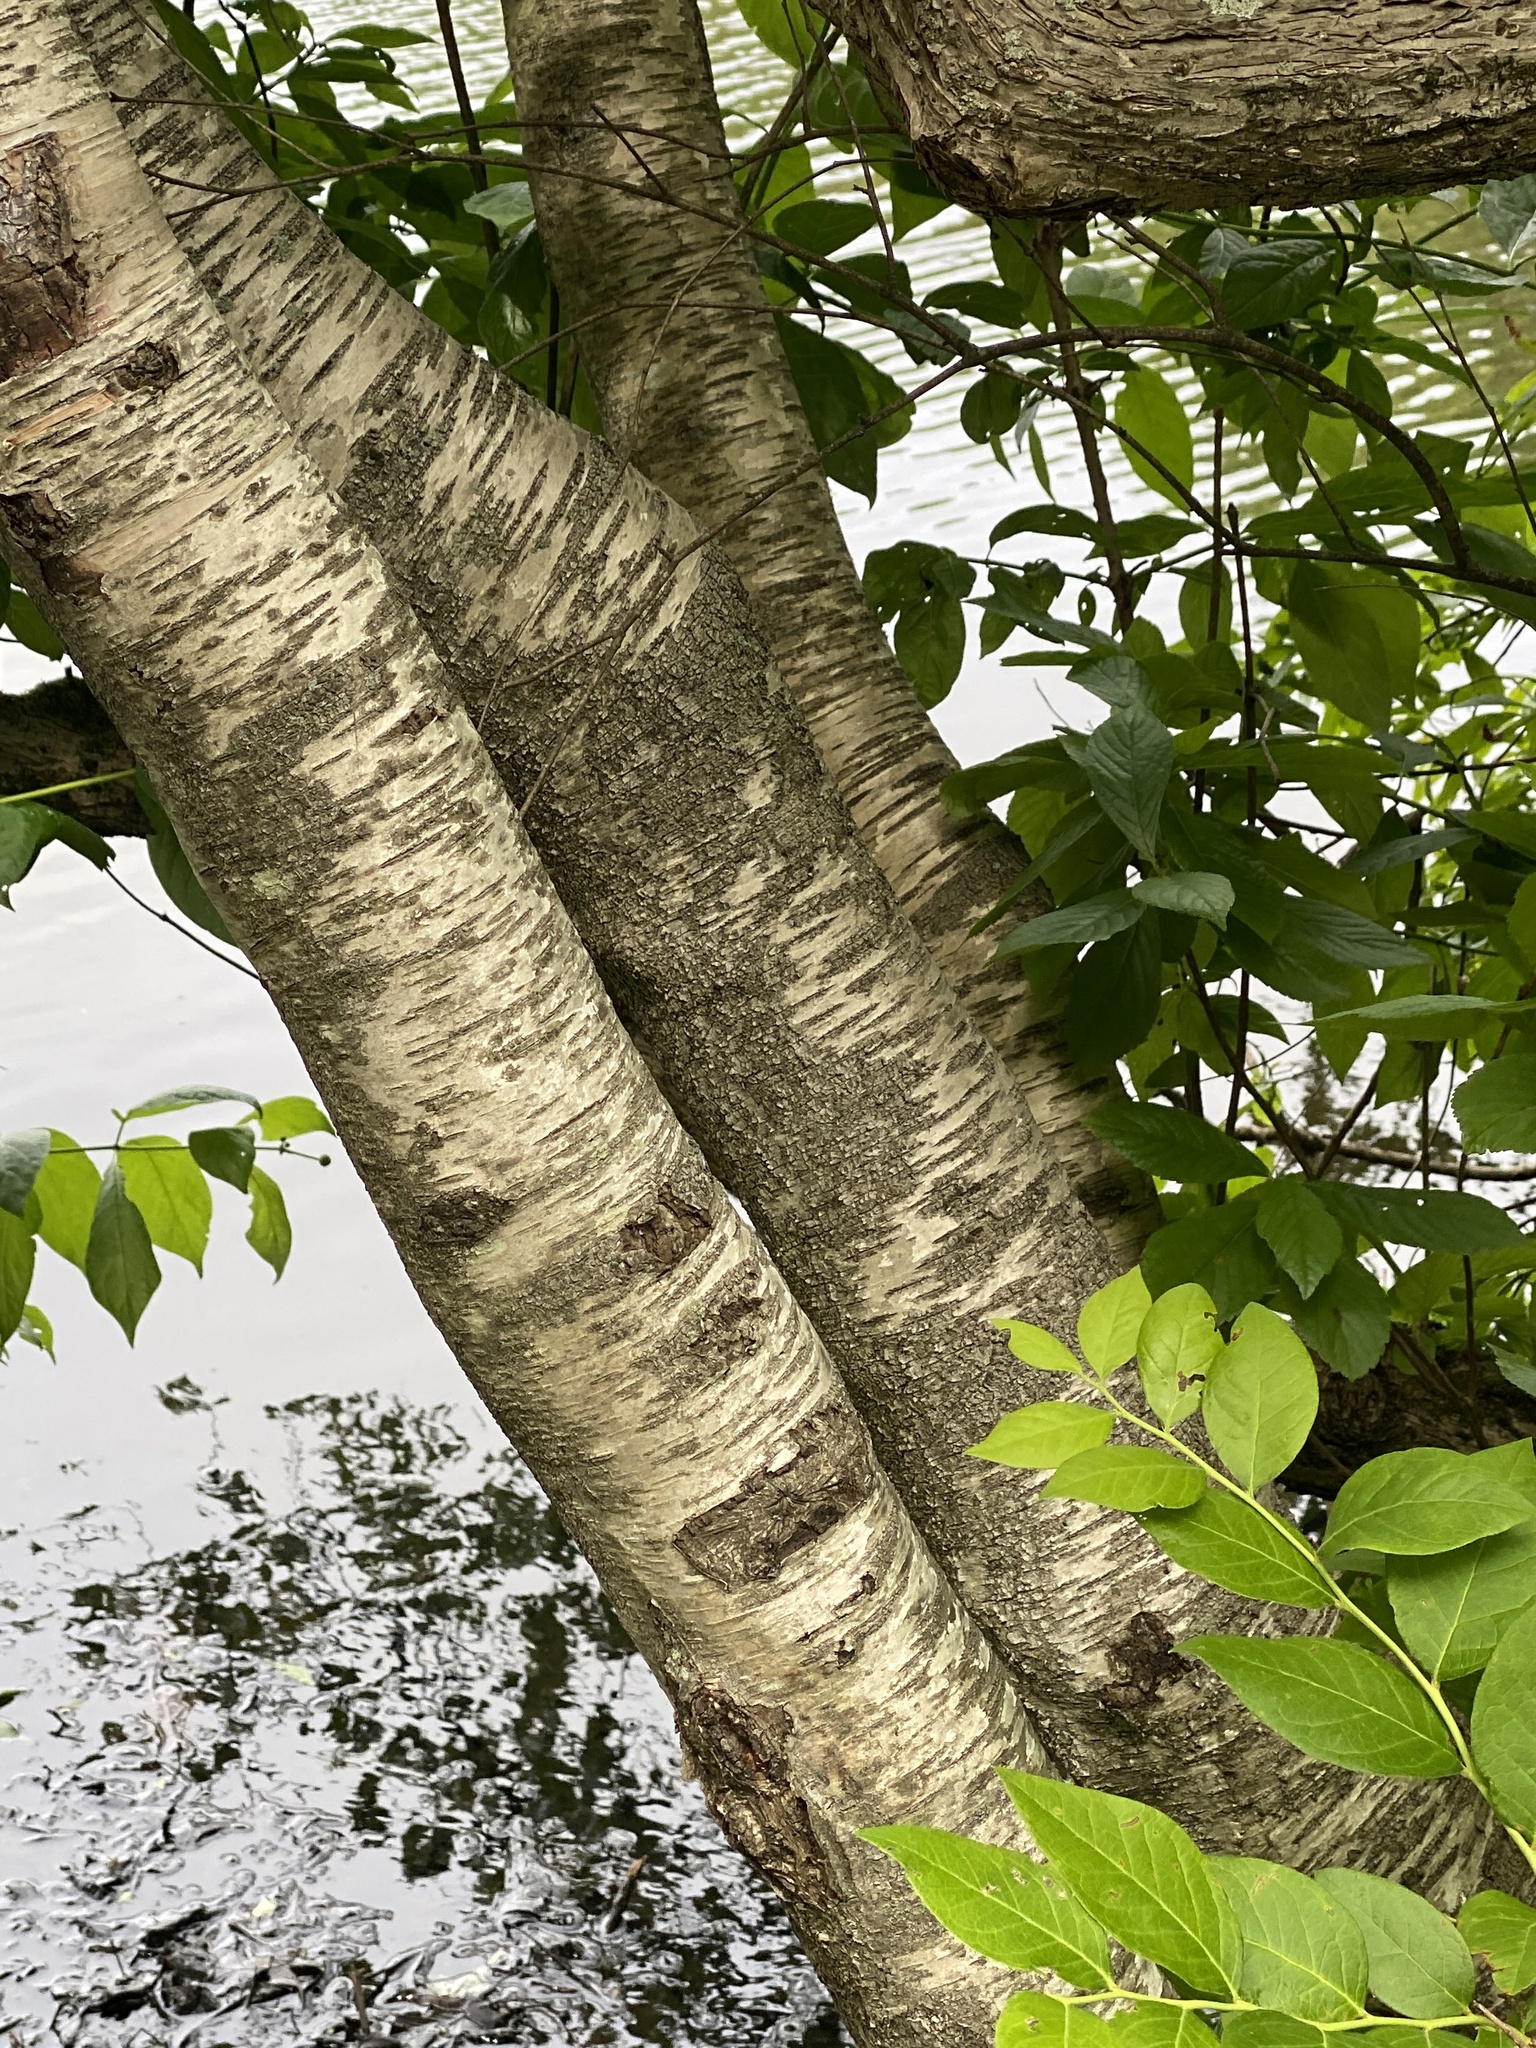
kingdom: Plantae
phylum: Tracheophyta
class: Magnoliopsida
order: Fagales
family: Betulaceae
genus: Betula
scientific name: Betula populifolia
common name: Fire birch
